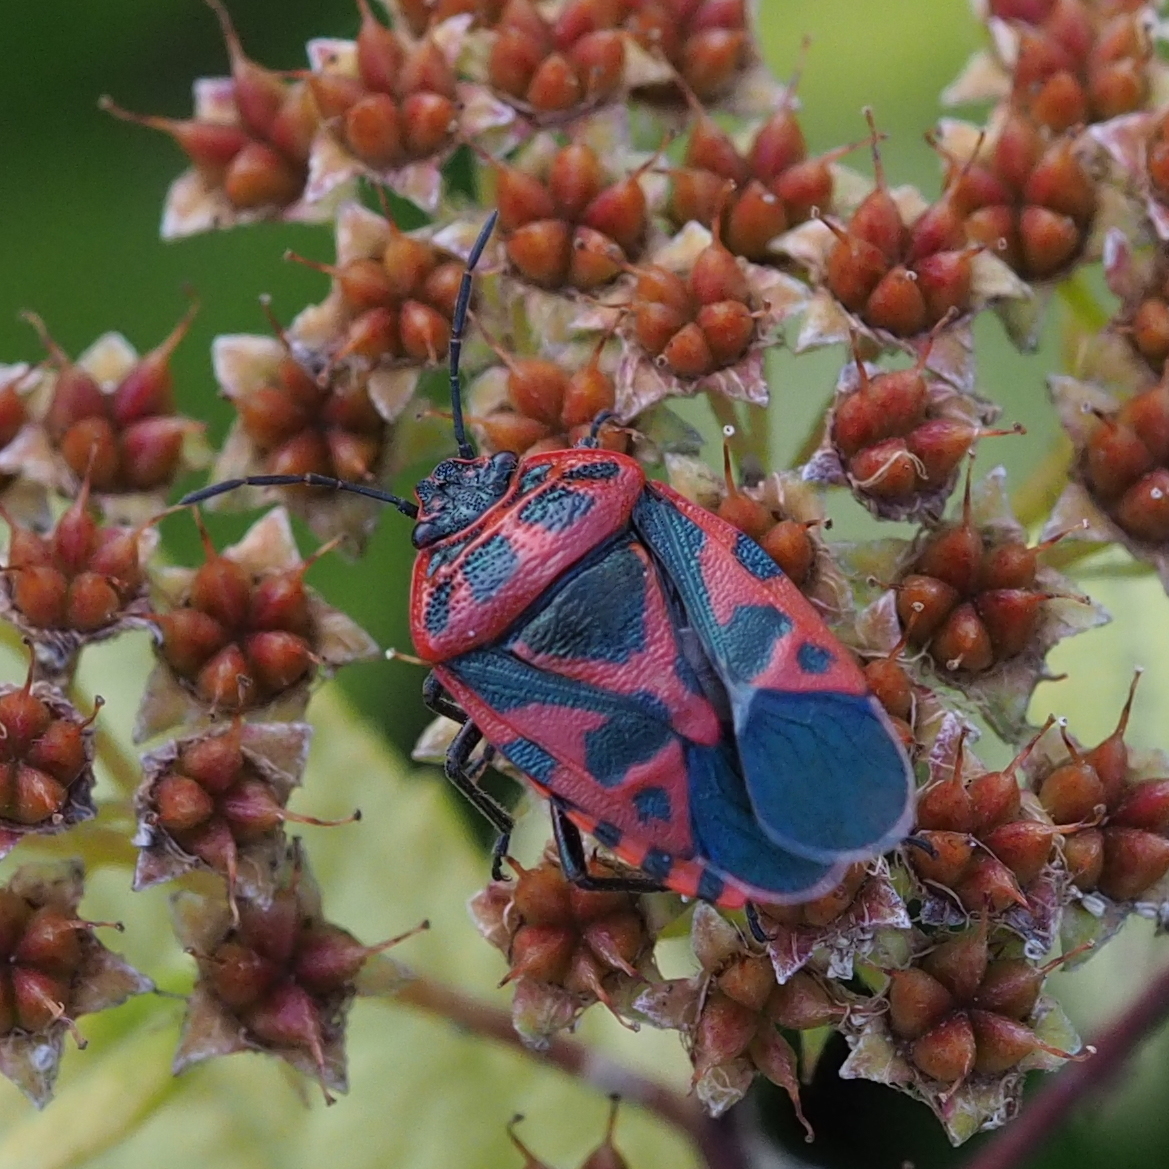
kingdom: Animalia
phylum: Arthropoda
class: Insecta
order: Hemiptera
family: Pentatomidae
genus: Eurydema
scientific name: Eurydema ventralis
